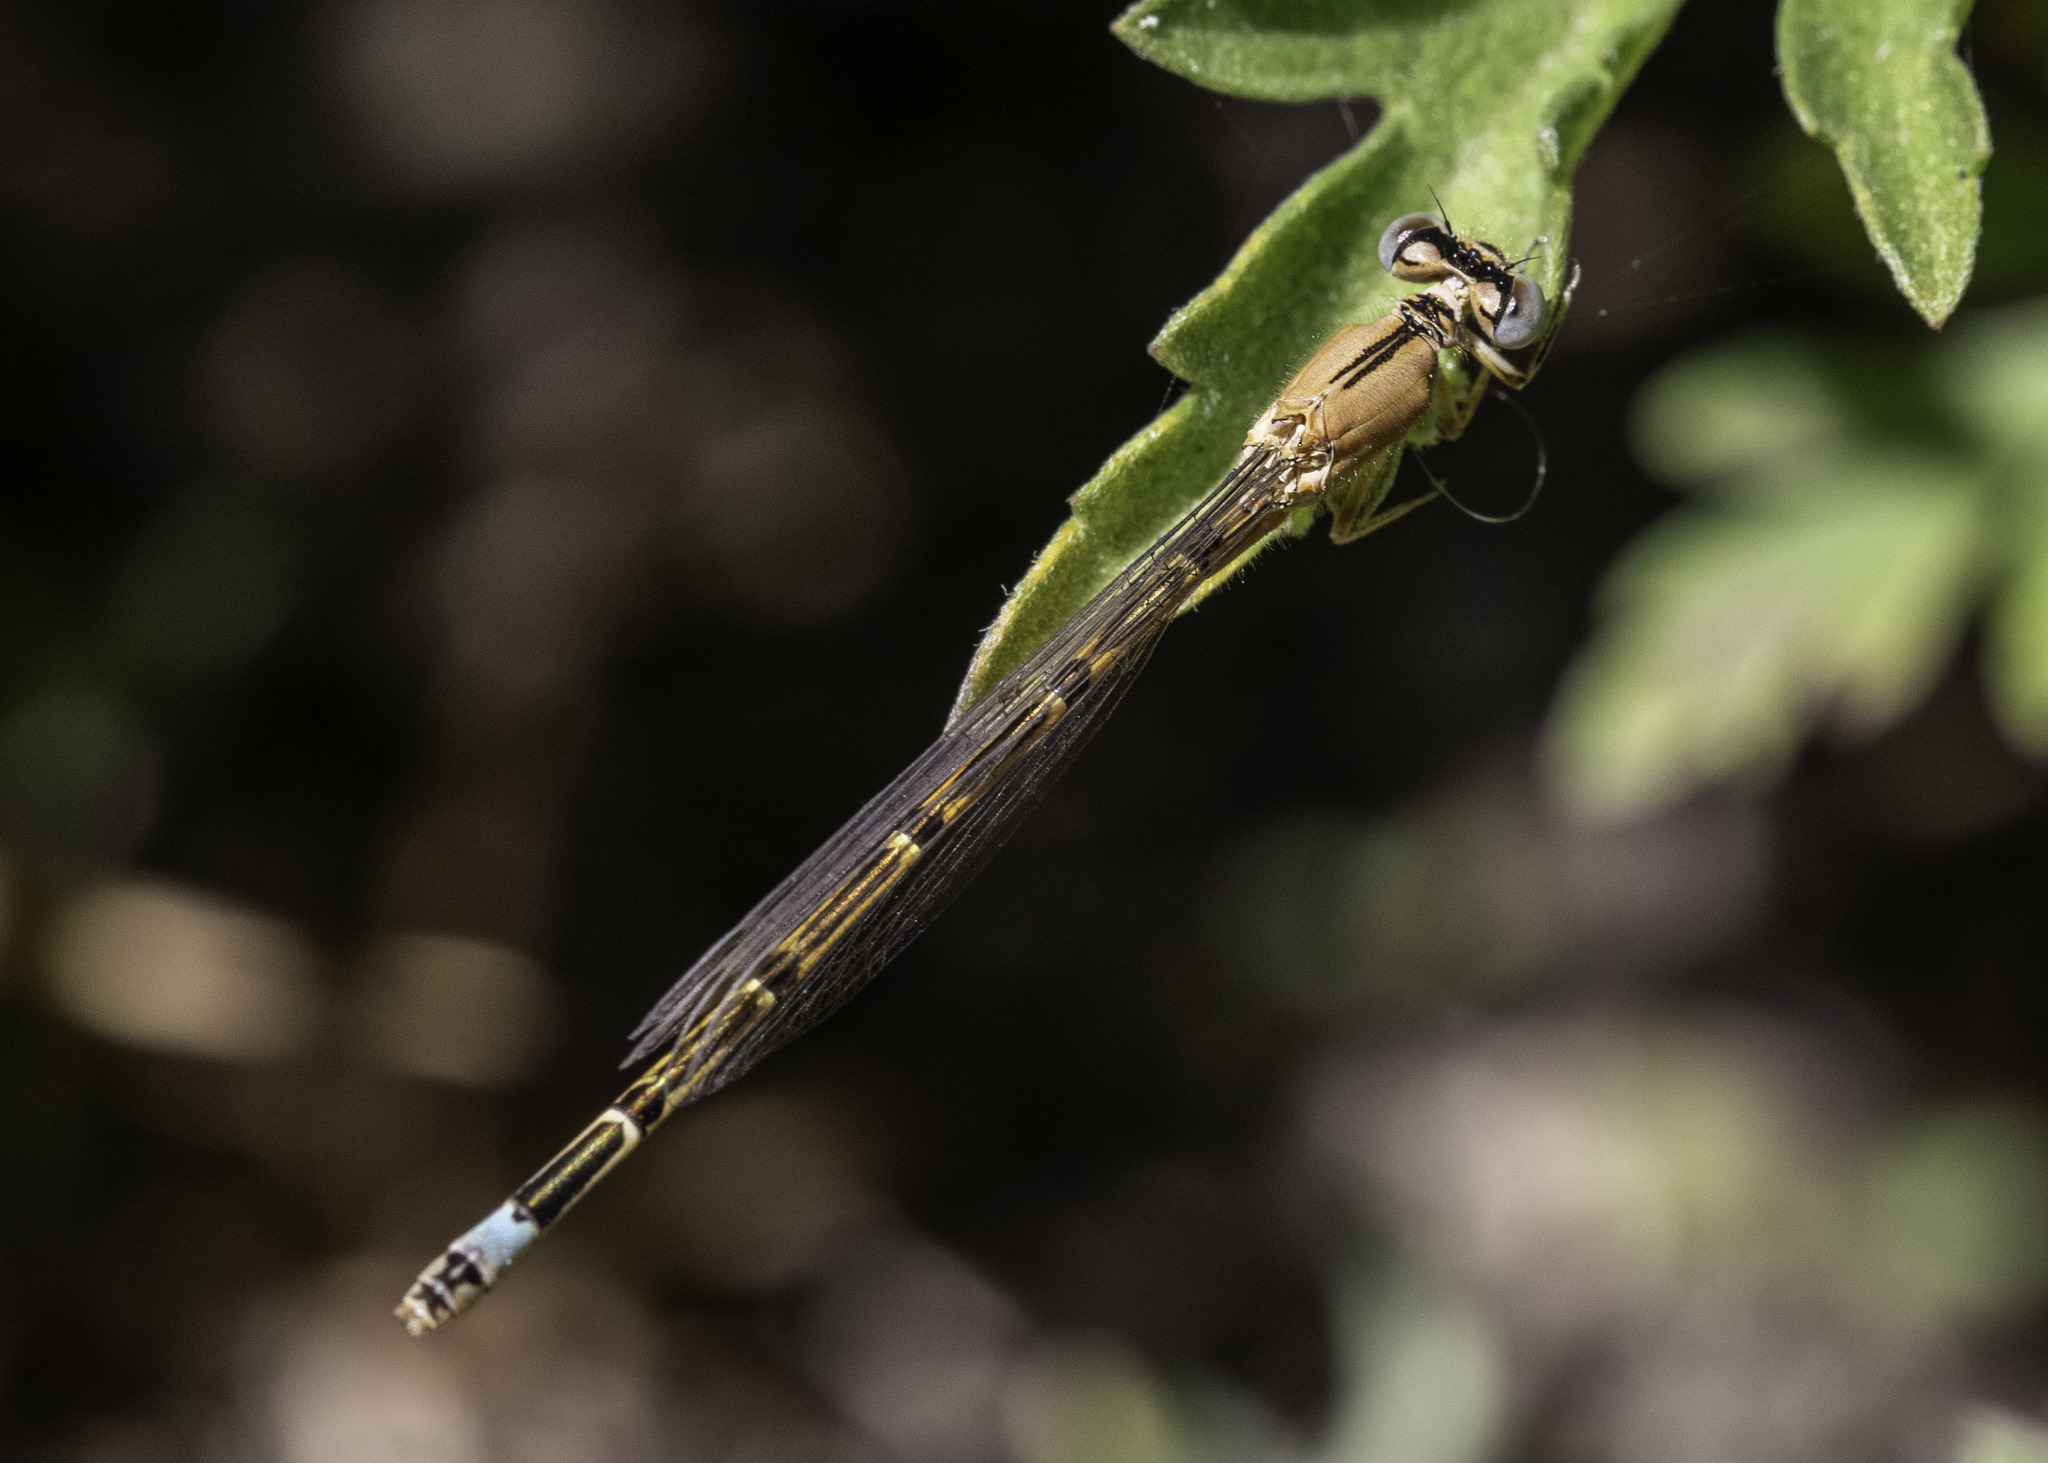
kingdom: Animalia
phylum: Arthropoda
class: Insecta
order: Odonata
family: Coenagrionidae
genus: Ischnura
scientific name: Ischnura barberi
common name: Desert forktail
